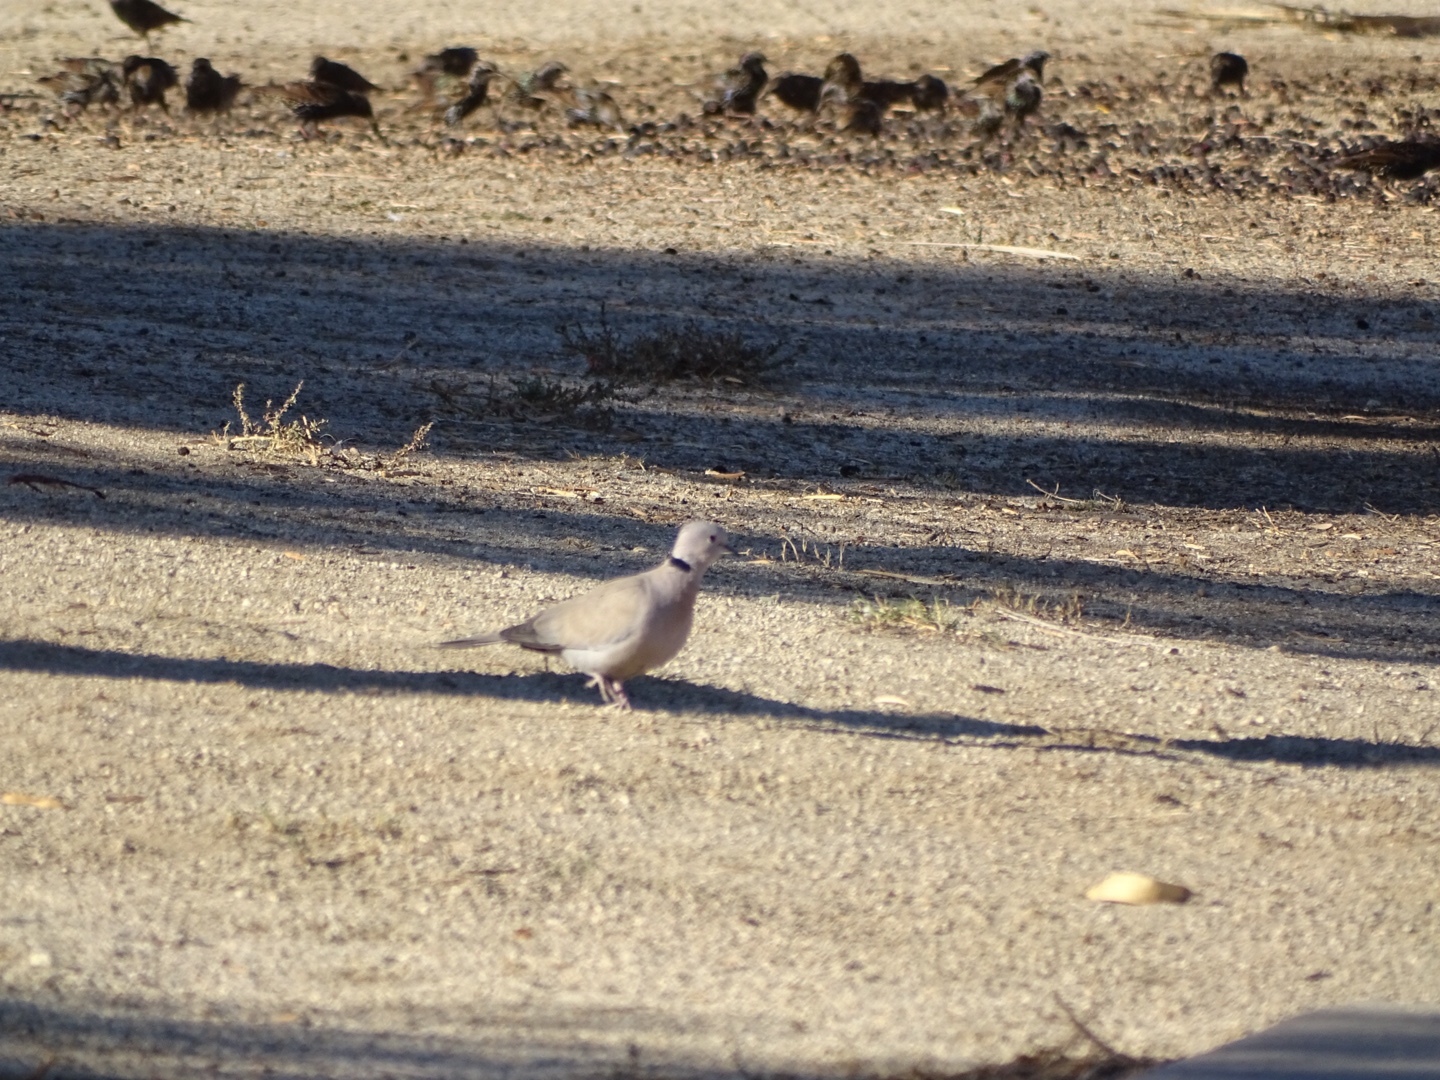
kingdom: Animalia
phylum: Chordata
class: Aves
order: Columbiformes
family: Columbidae
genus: Streptopelia
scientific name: Streptopelia decaocto
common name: Eurasian collared dove
